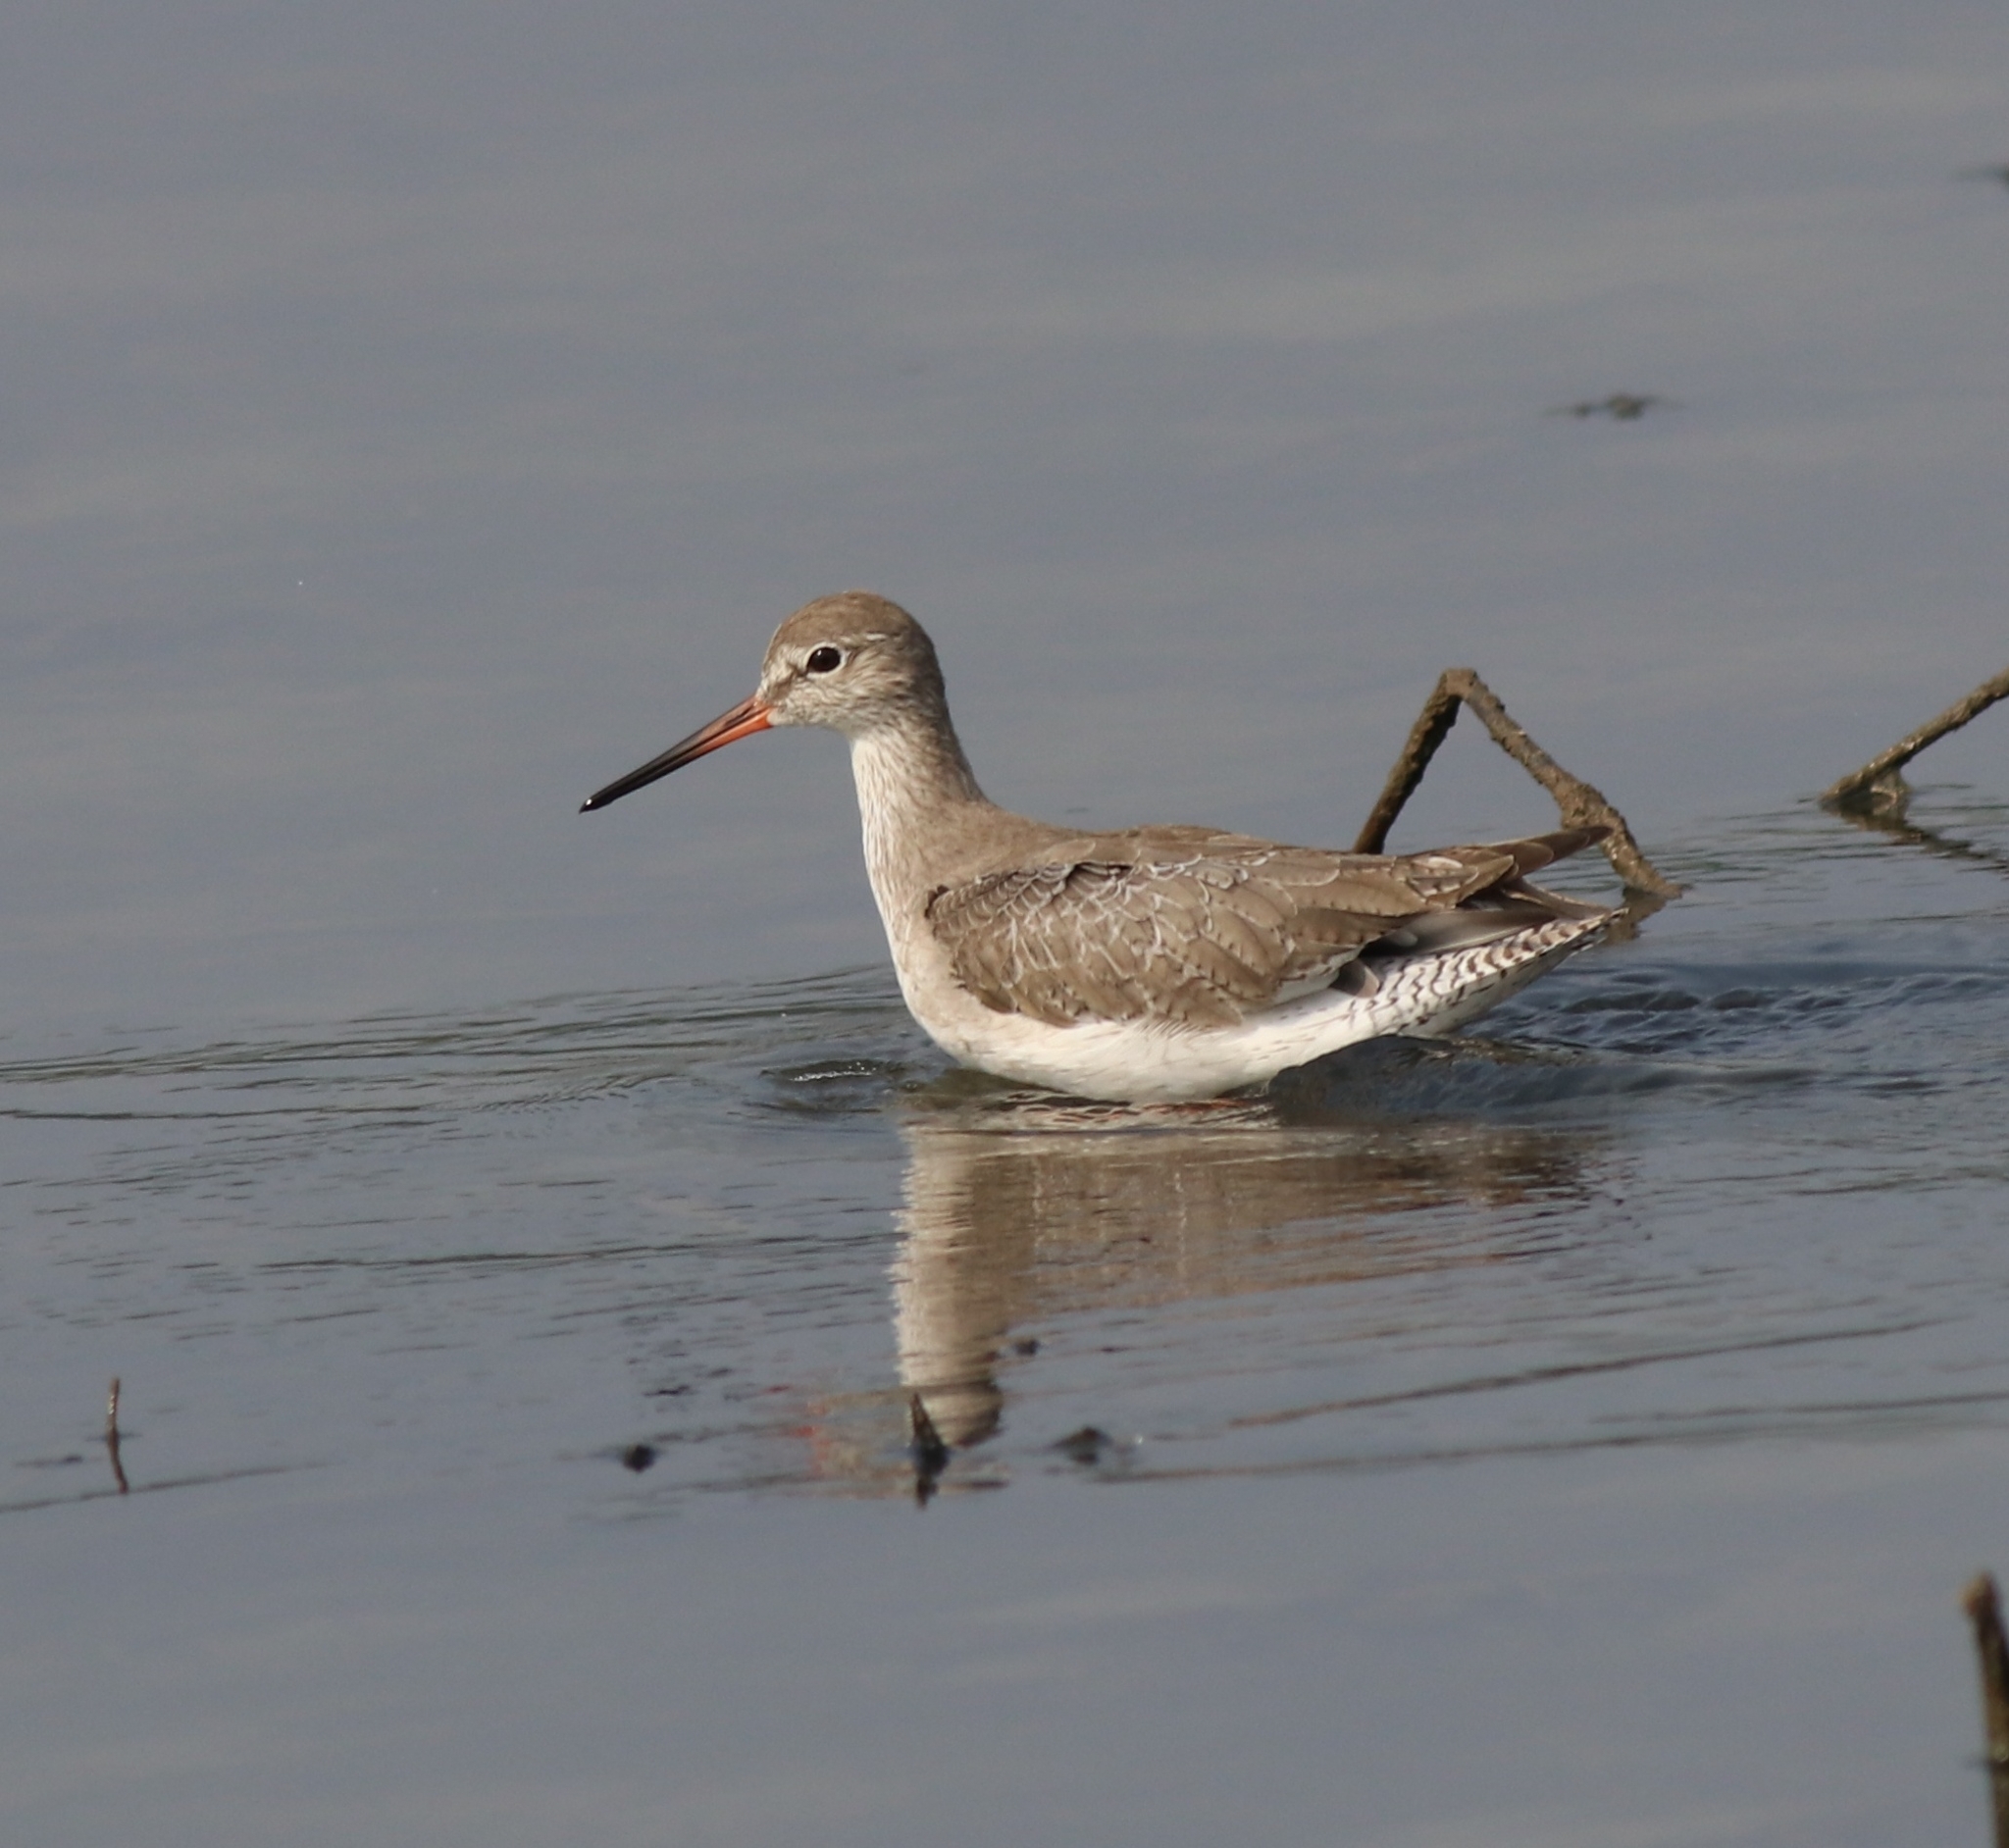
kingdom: Animalia
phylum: Chordata
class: Aves
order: Charadriiformes
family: Scolopacidae
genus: Tringa
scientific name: Tringa totanus
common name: Common redshank
